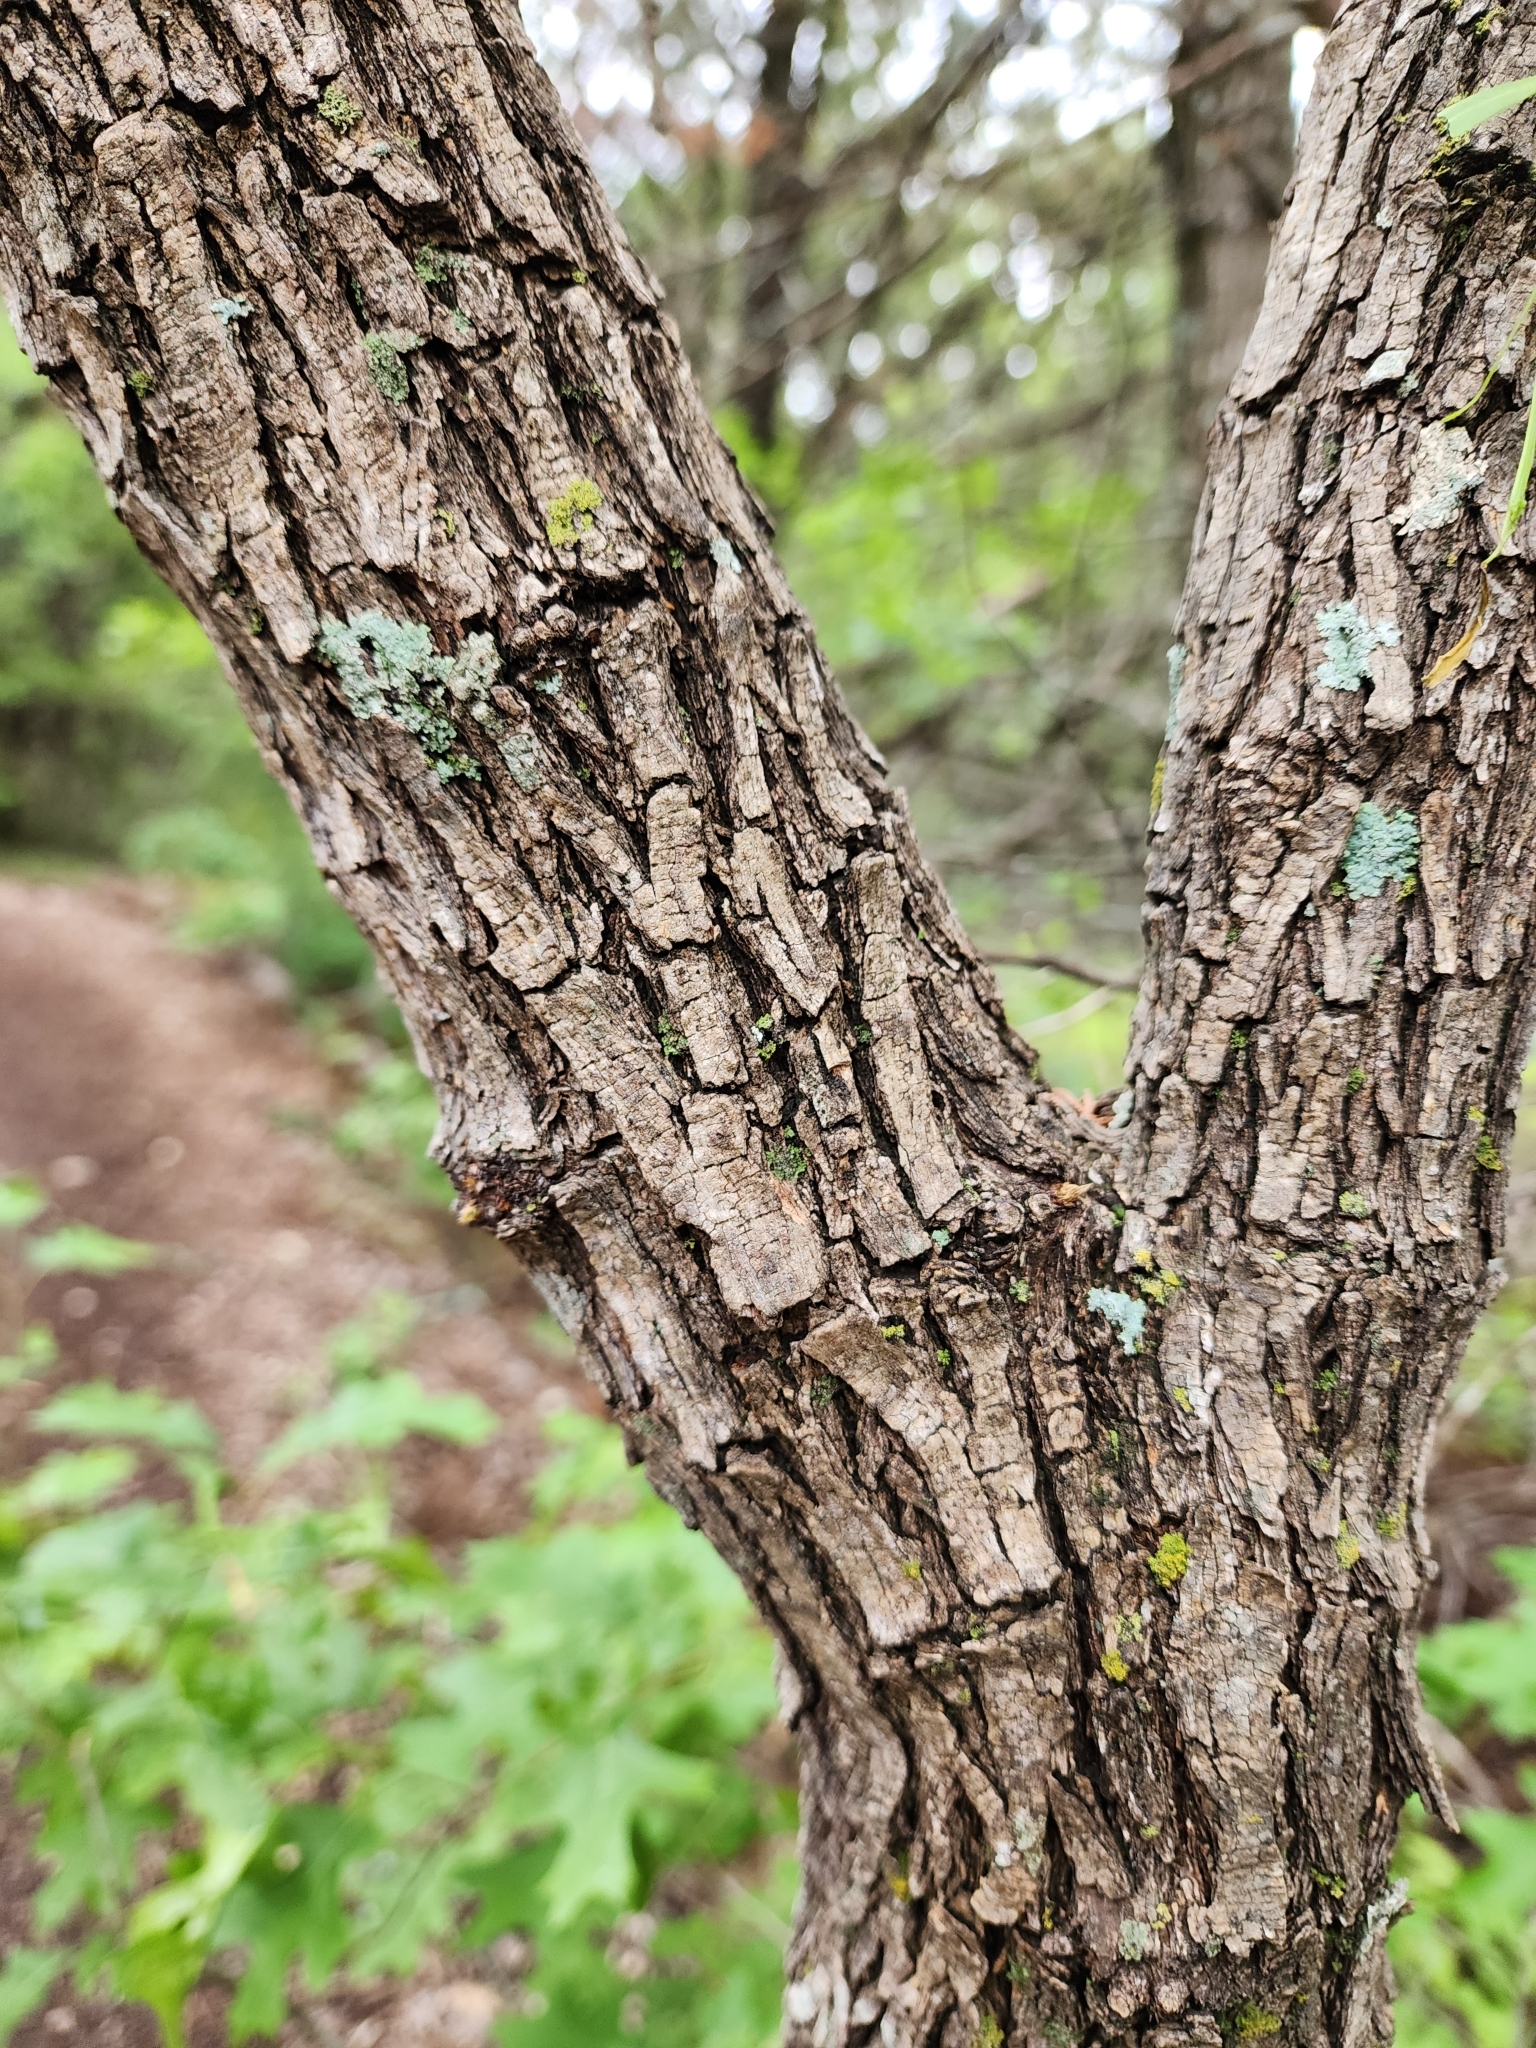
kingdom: Plantae
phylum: Tracheophyta
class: Magnoliopsida
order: Fabales
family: Fabaceae
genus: Prosopis
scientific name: Prosopis glandulosa
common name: Honey mesquite
